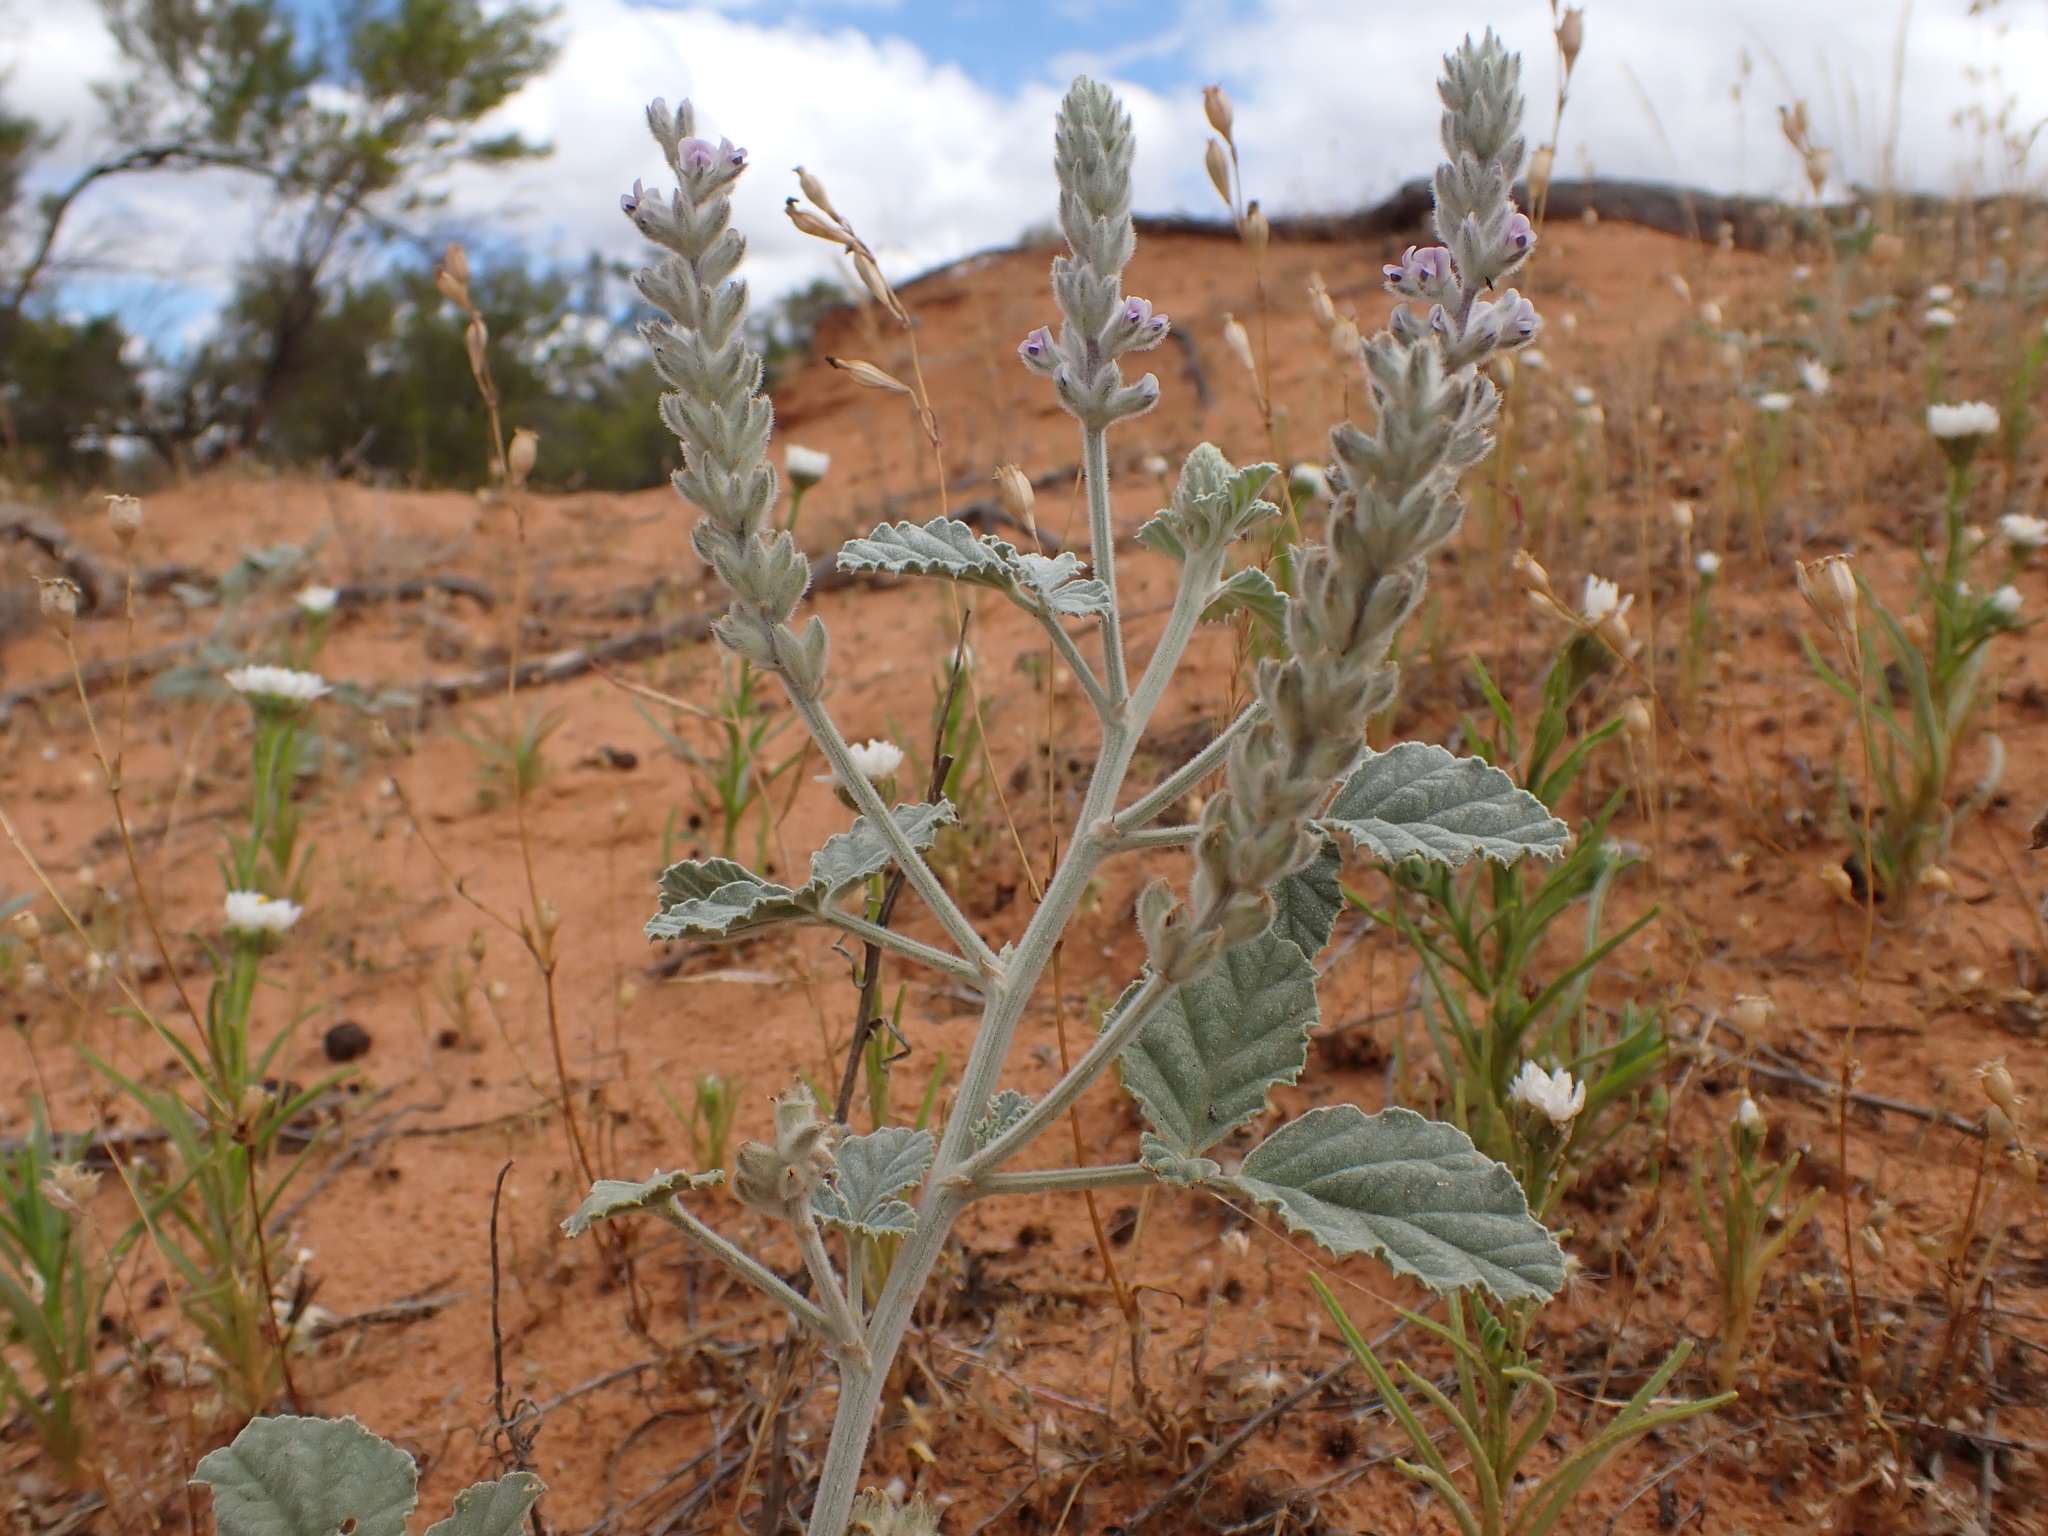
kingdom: Plantae
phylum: Tracheophyta
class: Magnoliopsida
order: Fabales
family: Fabaceae
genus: Cullen
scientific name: Cullen pallidum
